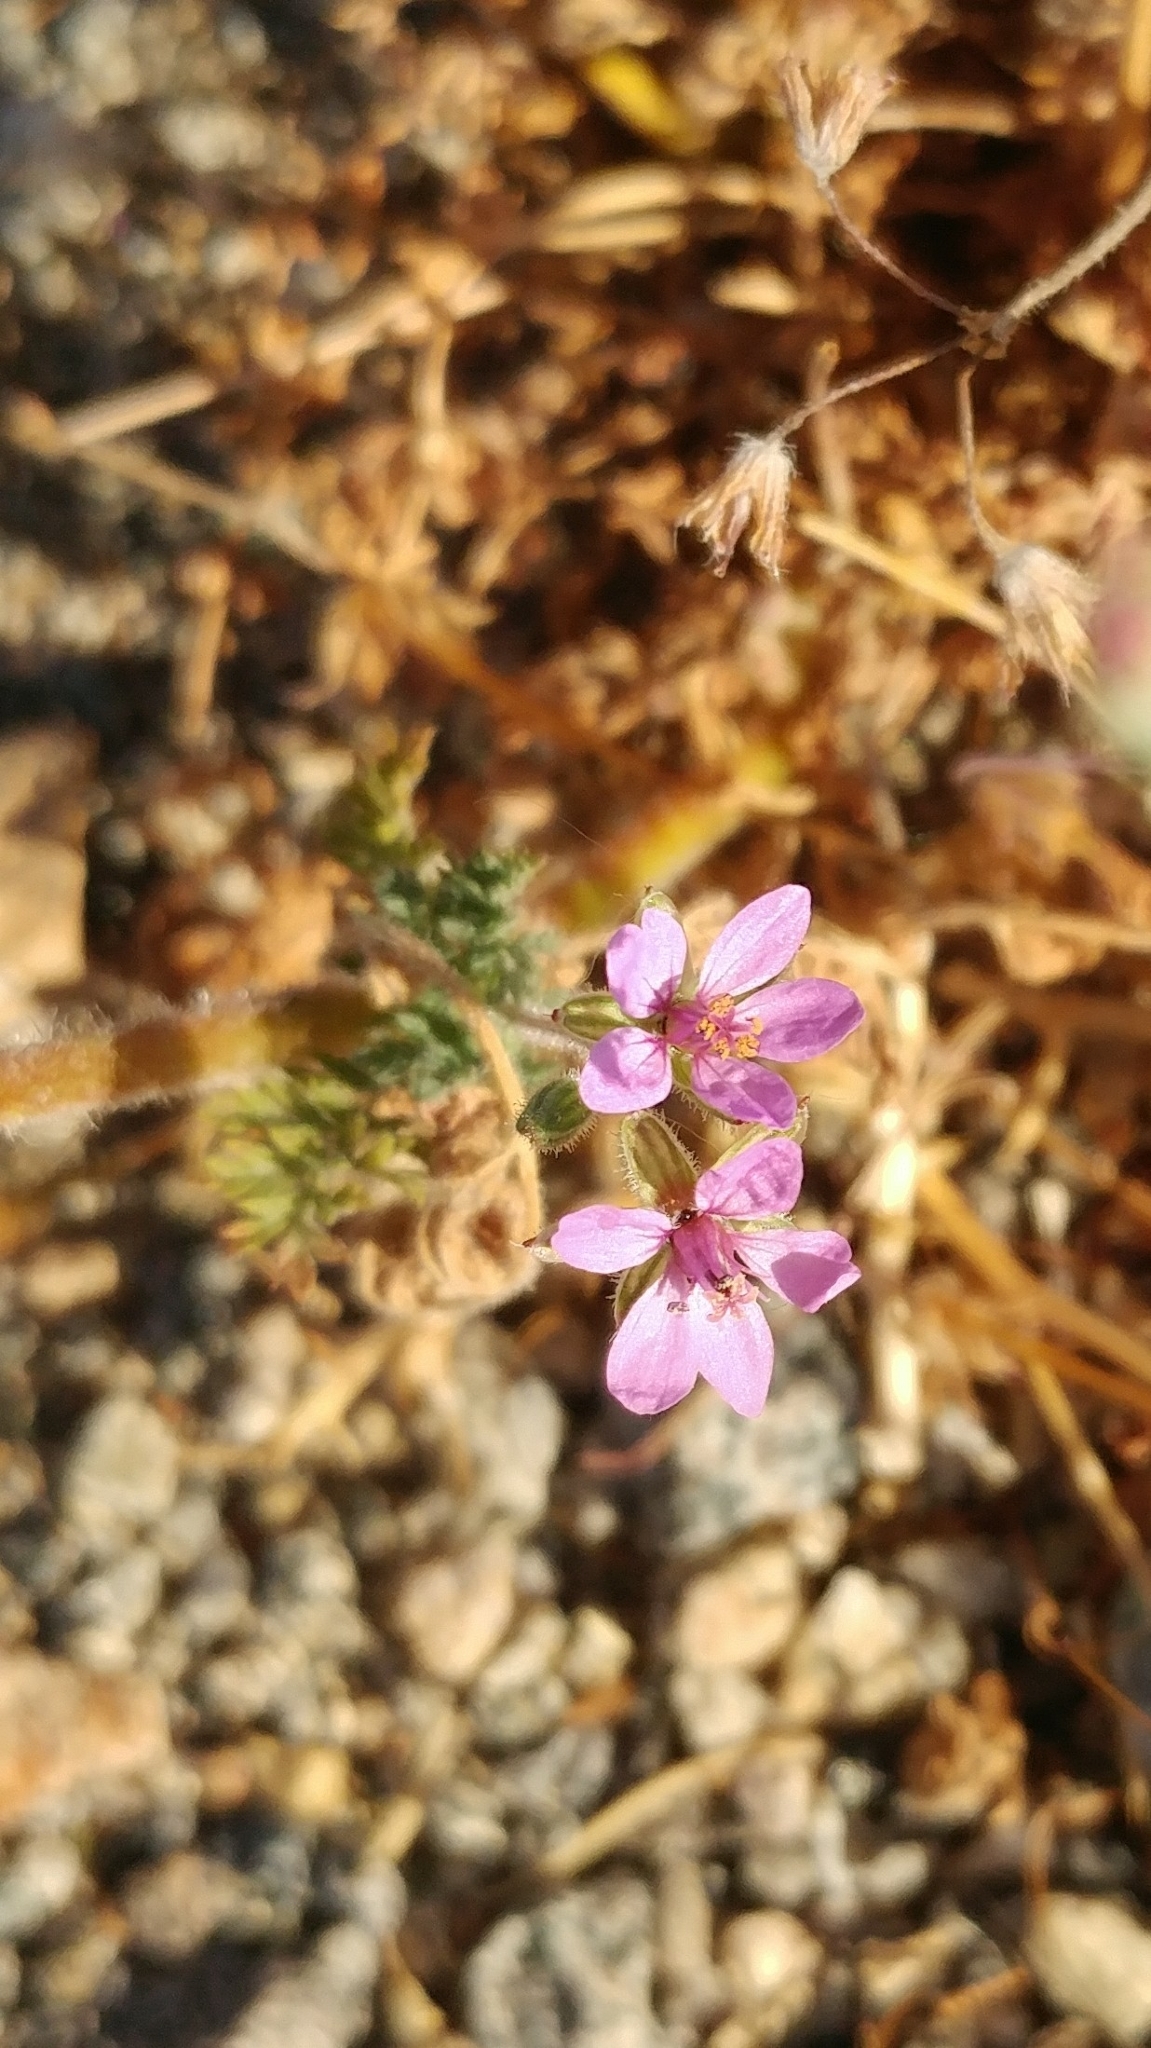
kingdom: Plantae
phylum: Tracheophyta
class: Magnoliopsida
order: Geraniales
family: Geraniaceae
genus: Erodium
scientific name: Erodium cicutarium
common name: Common stork's-bill
